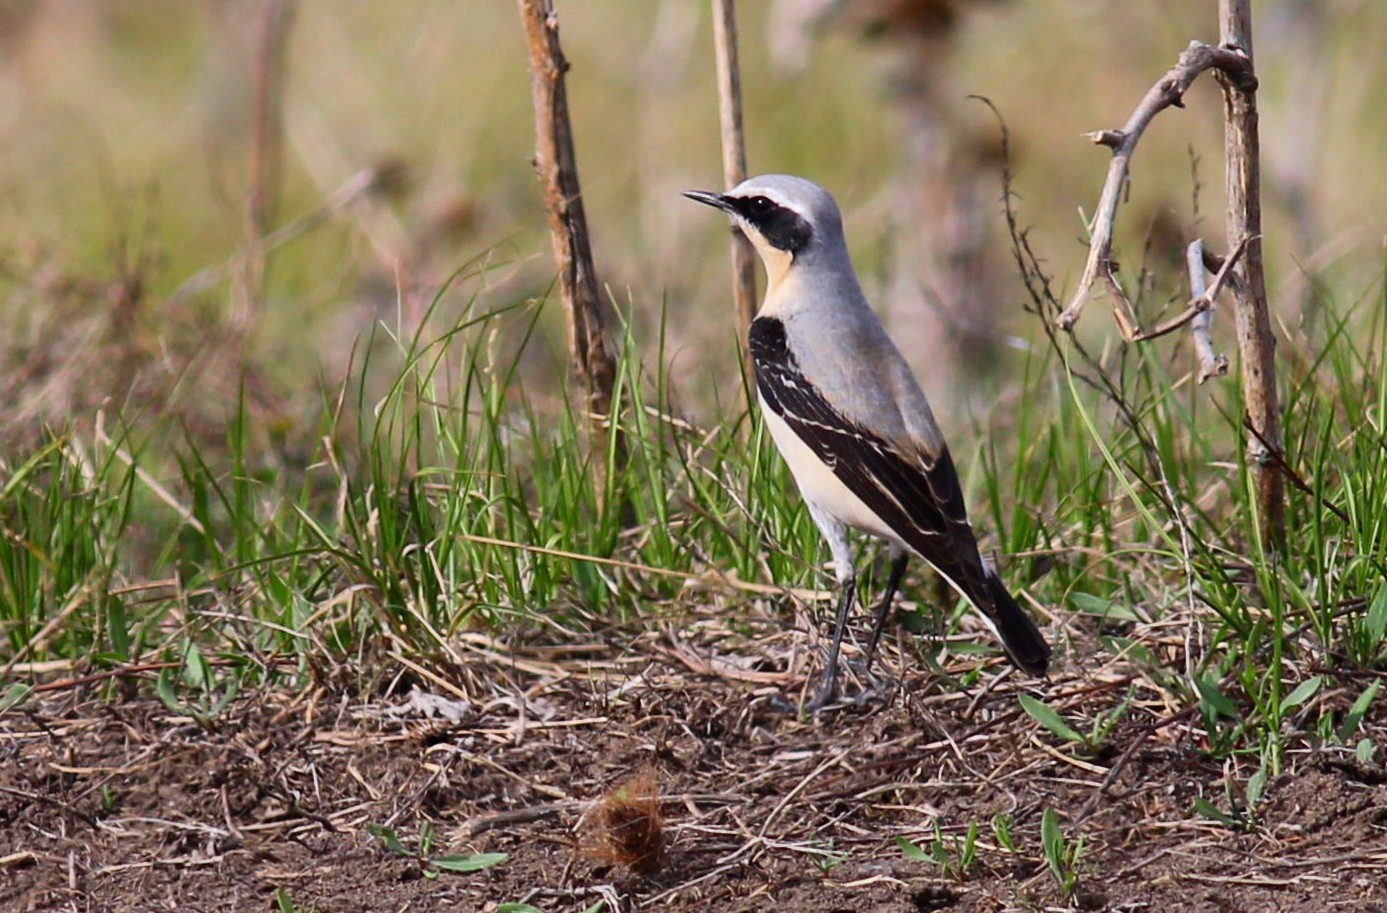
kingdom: Animalia
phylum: Chordata
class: Aves
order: Passeriformes
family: Muscicapidae
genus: Oenanthe
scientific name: Oenanthe oenanthe
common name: Northern wheatear
